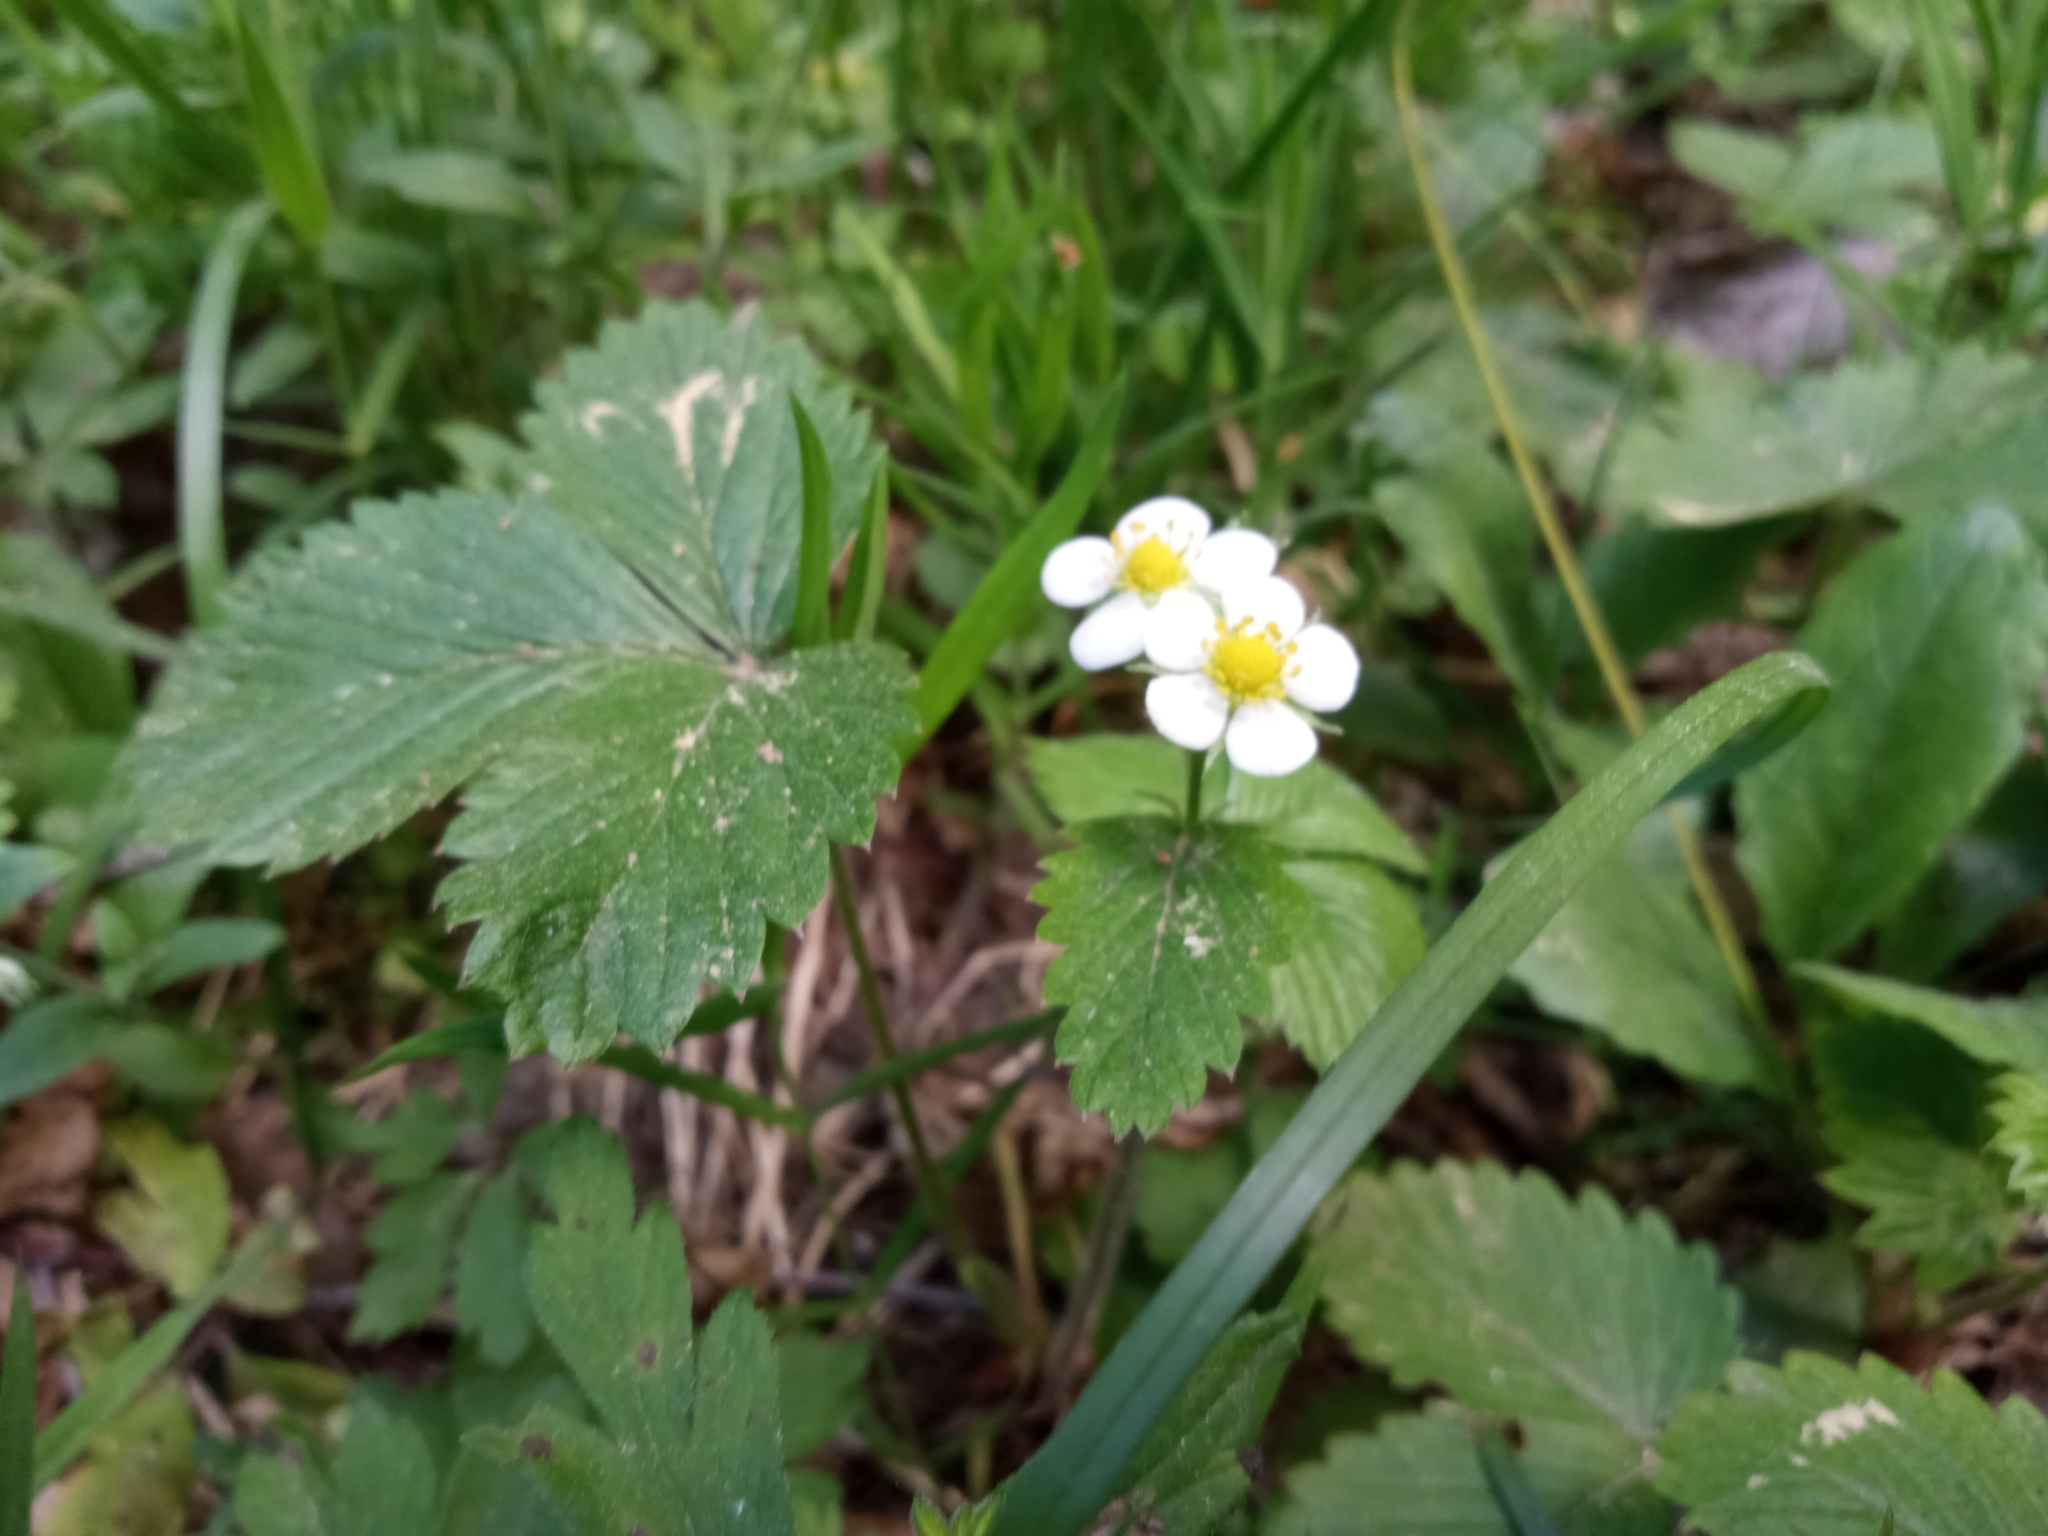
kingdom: Plantae
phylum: Tracheophyta
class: Magnoliopsida
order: Rosales
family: Rosaceae
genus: Fragaria
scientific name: Fragaria vesca
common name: Wild strawberry
